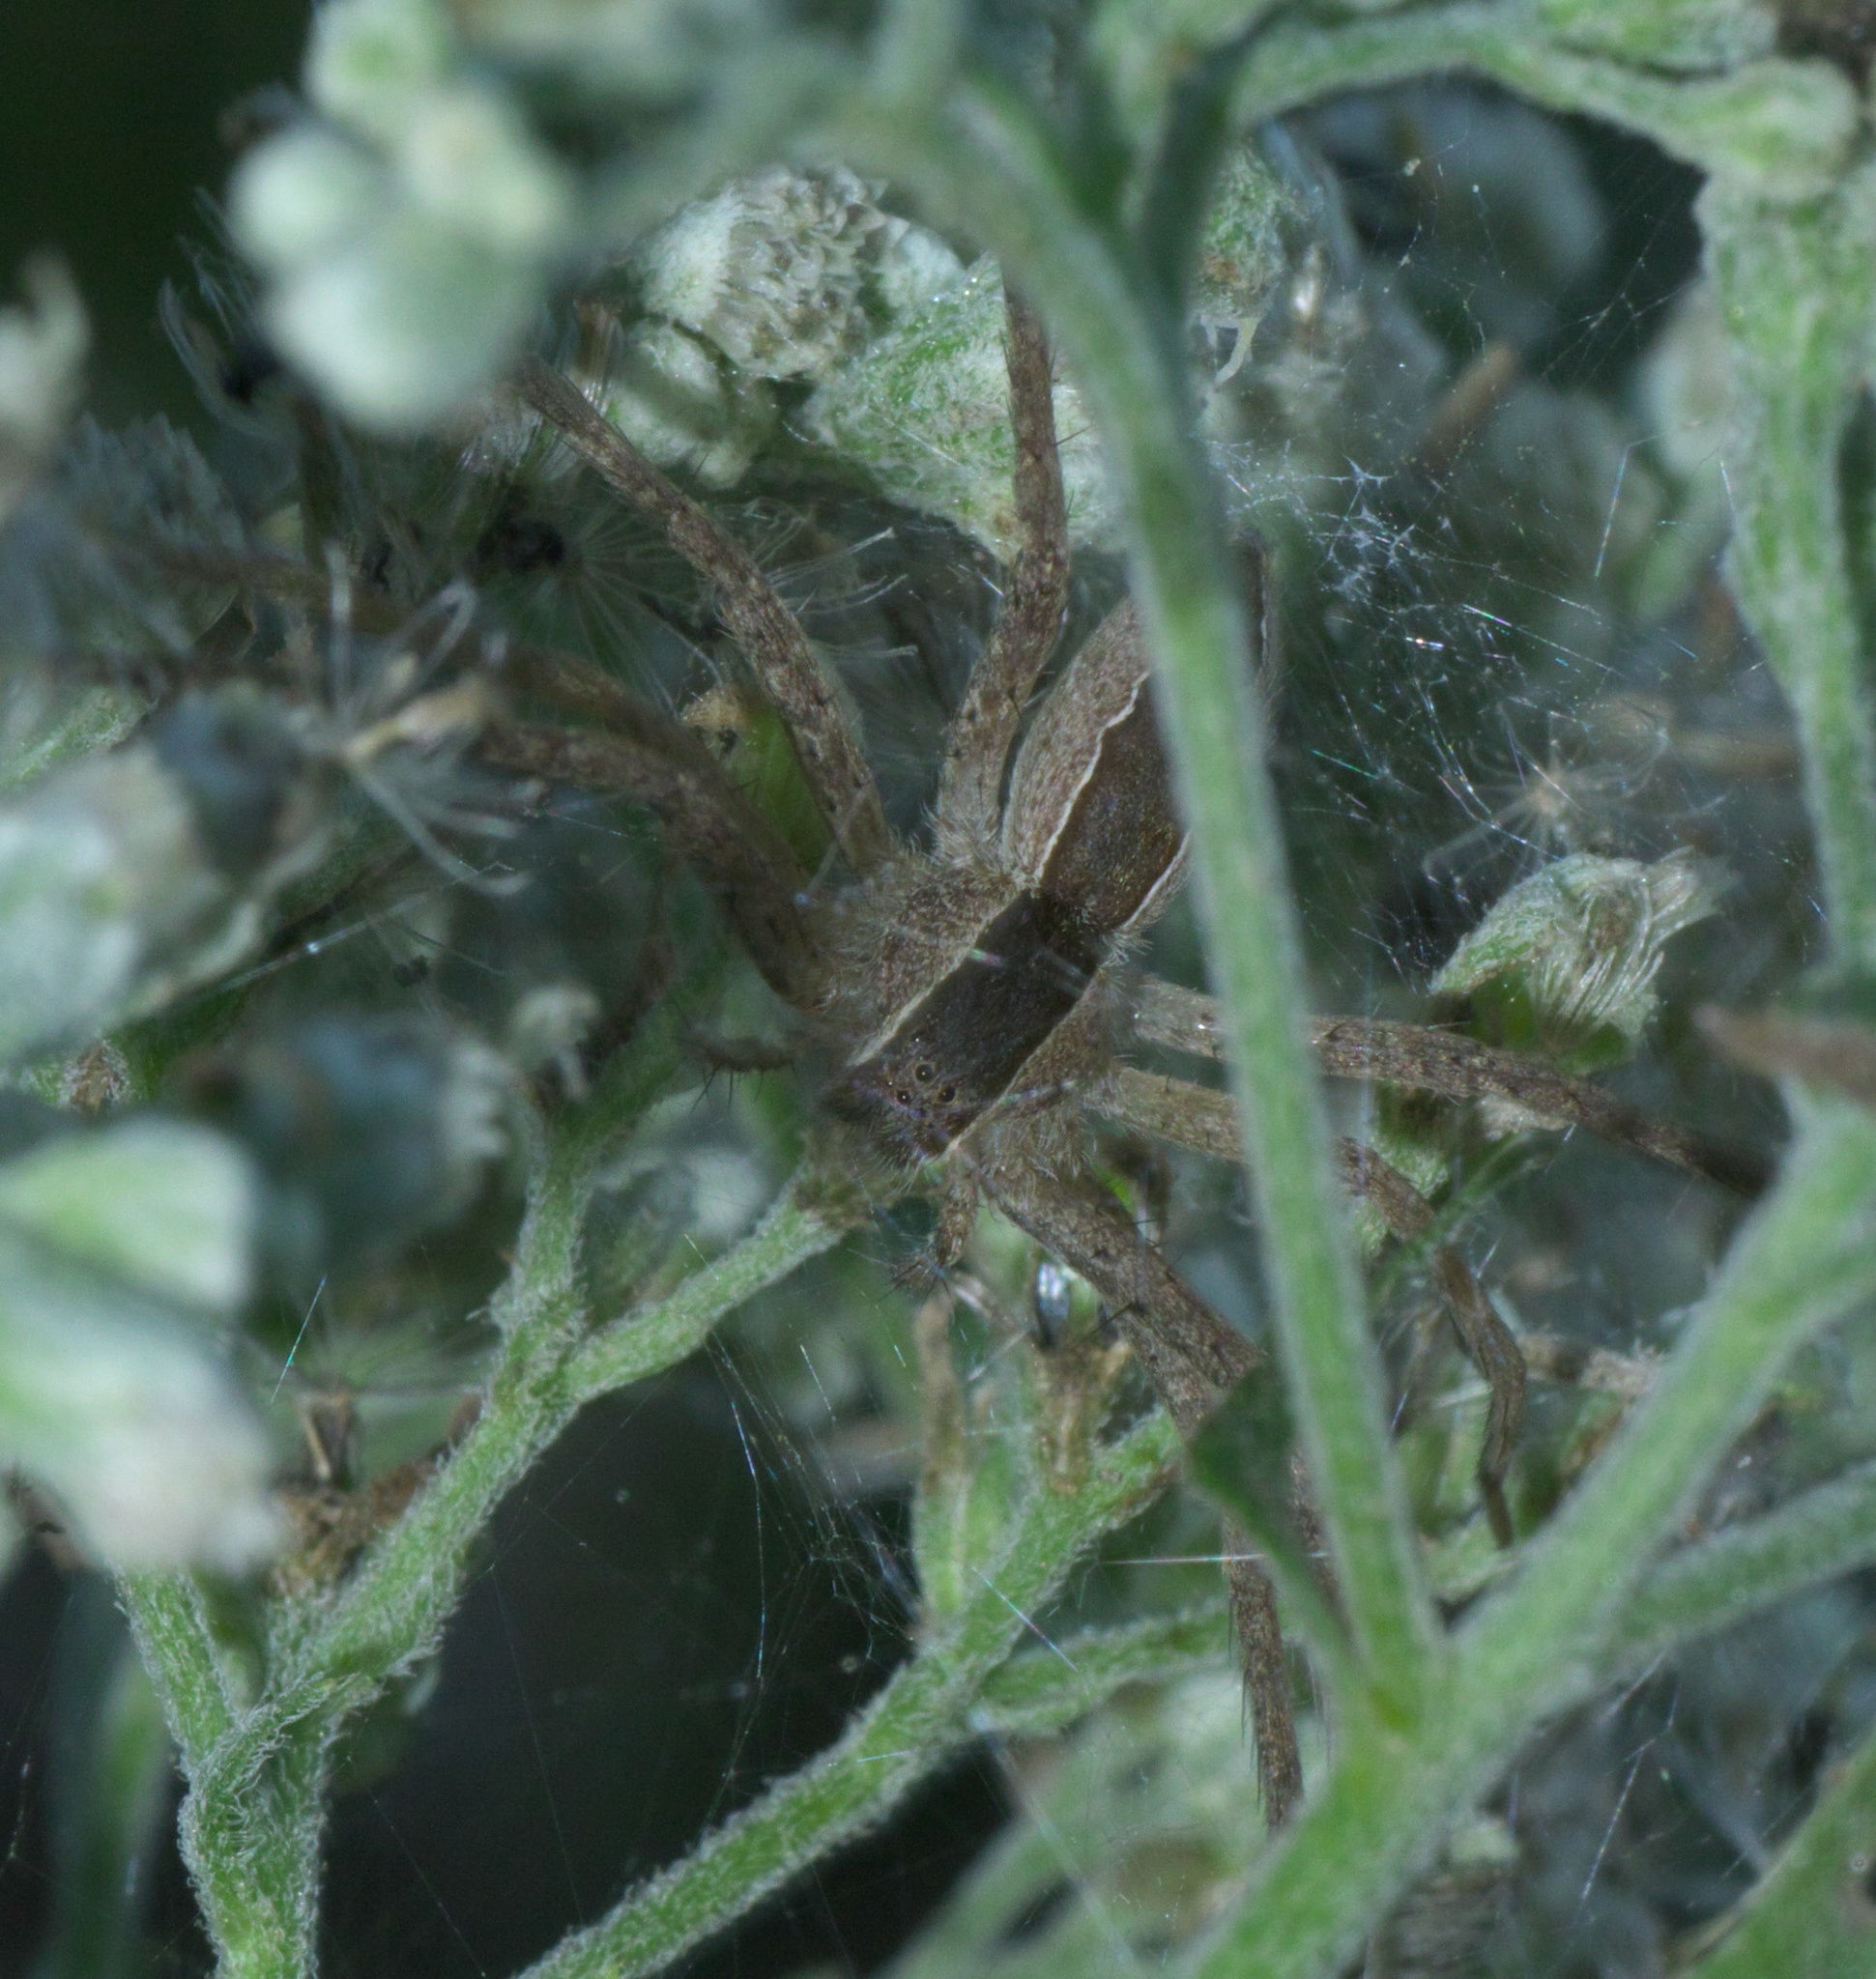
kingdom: Animalia
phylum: Arthropoda
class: Arachnida
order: Araneae
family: Pisauridae
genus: Pisaurina
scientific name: Pisaurina mira
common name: American nursery web spider
